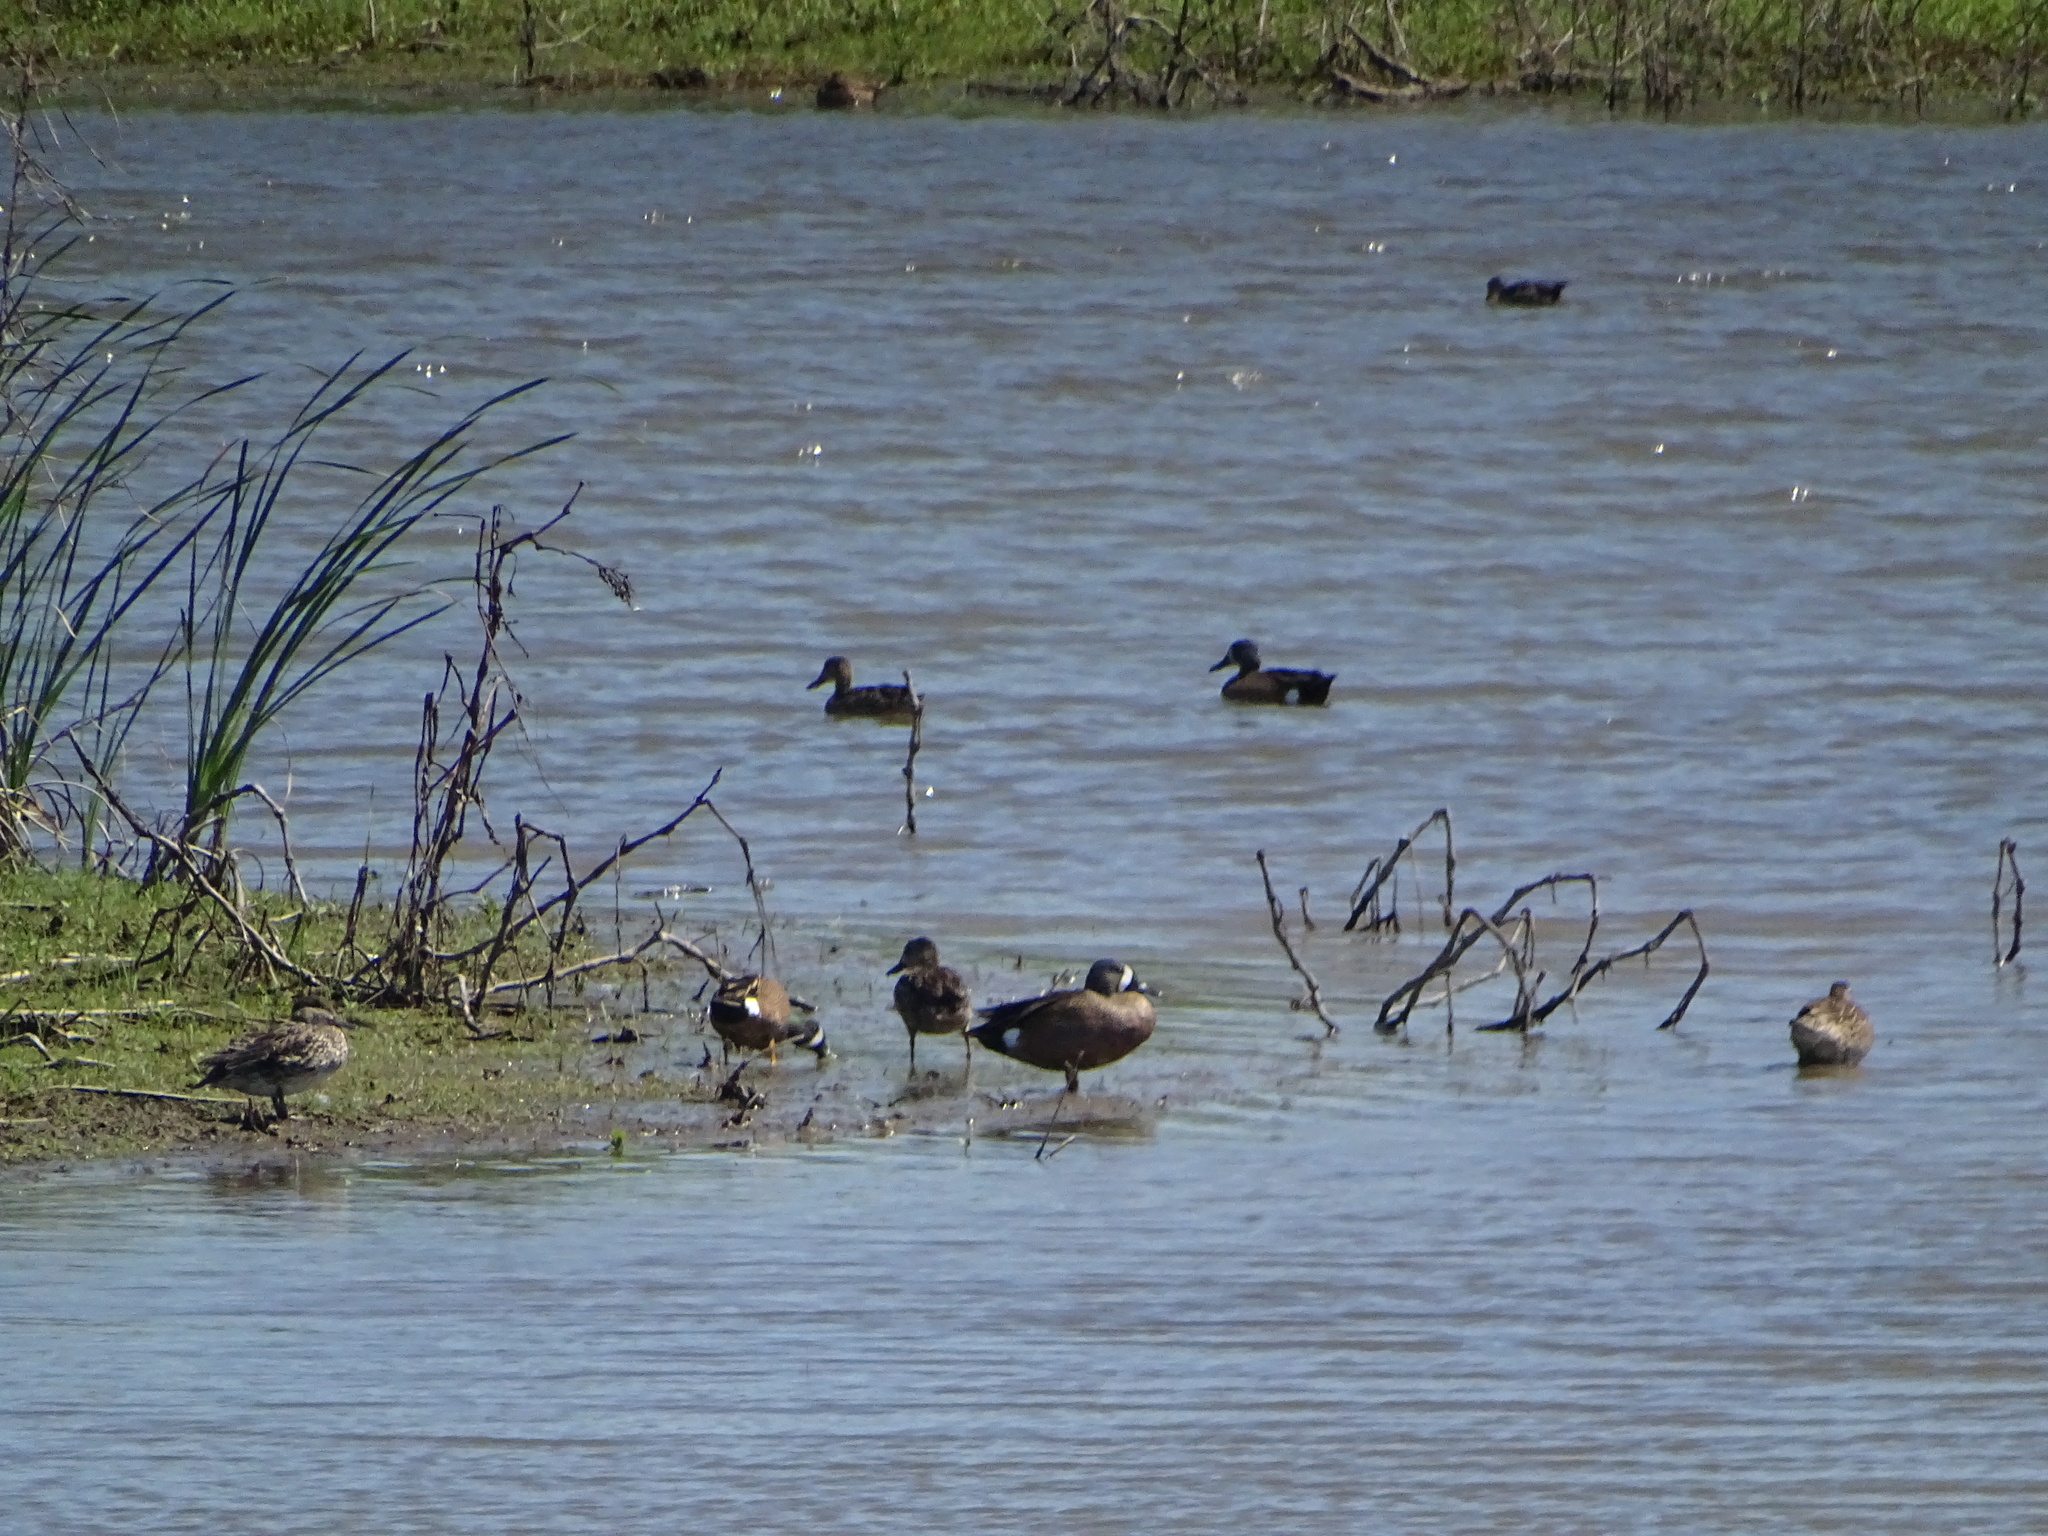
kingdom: Animalia
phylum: Chordata
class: Aves
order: Anseriformes
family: Anatidae
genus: Spatula
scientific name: Spatula discors
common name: Blue-winged teal
